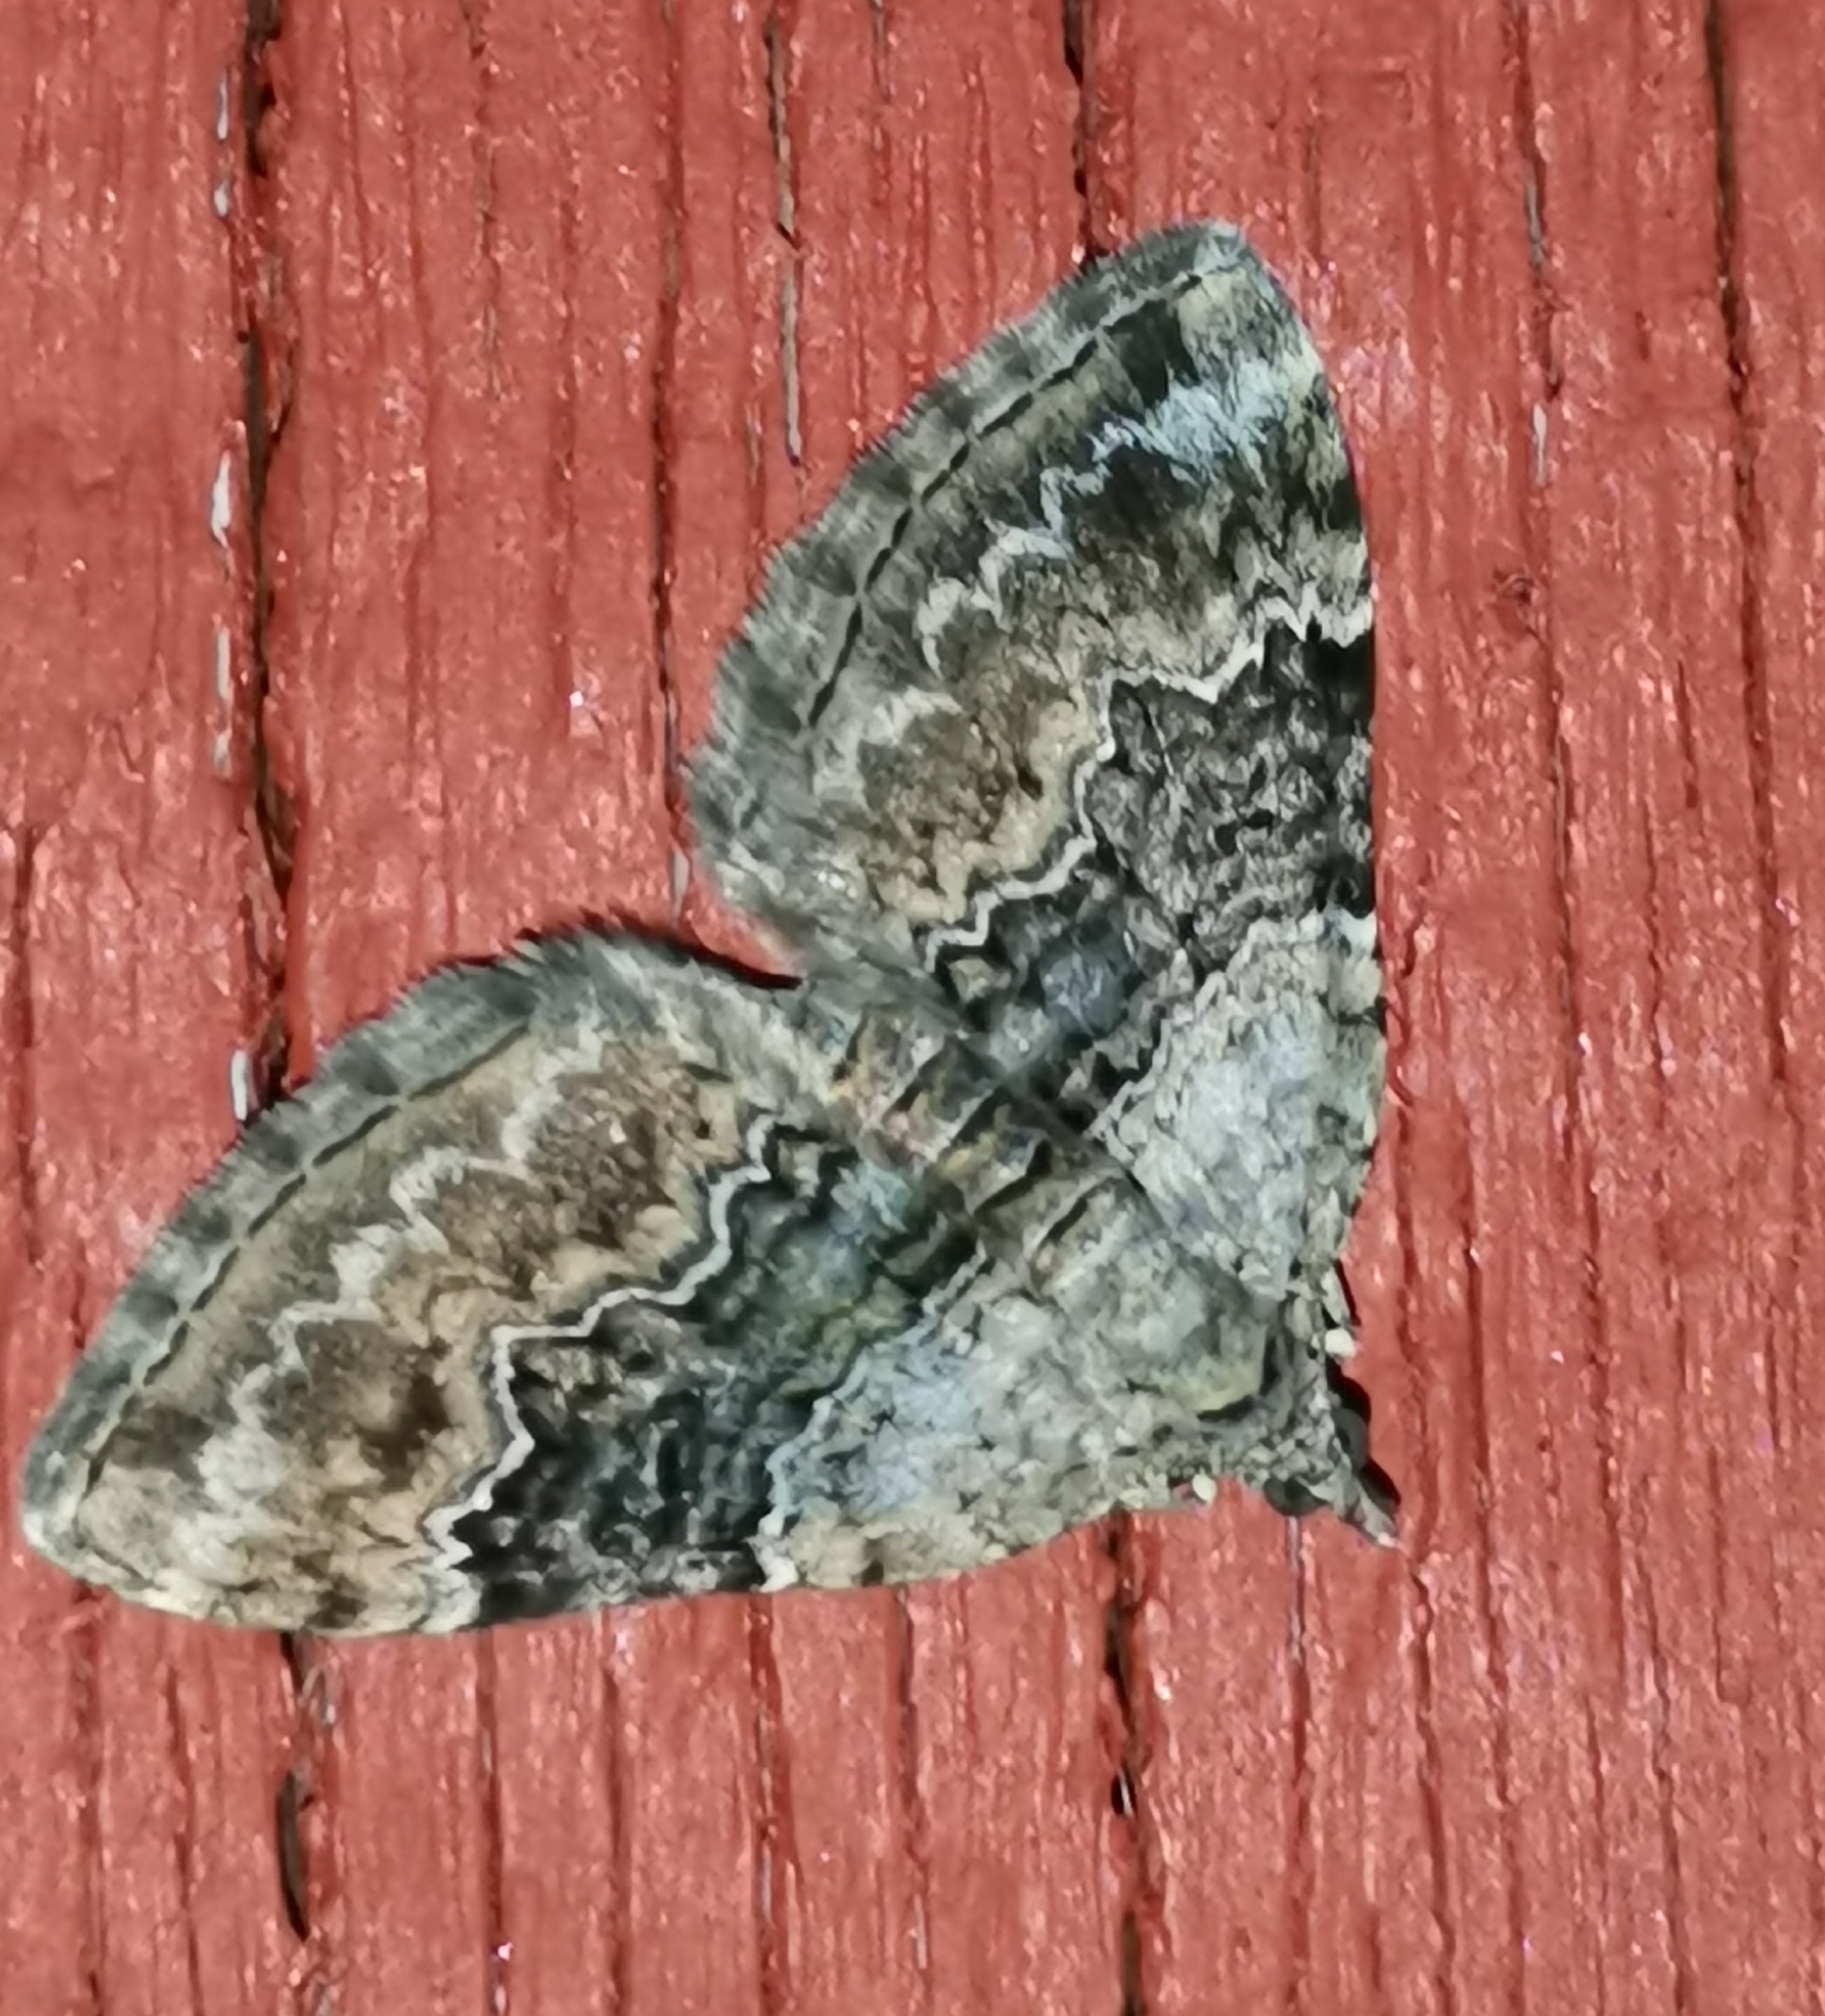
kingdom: Animalia
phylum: Arthropoda
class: Insecta
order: Lepidoptera
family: Geometridae
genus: Xanthorhoe
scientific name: Xanthorhoe quadrifasiata
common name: Large twin-spot carpet
